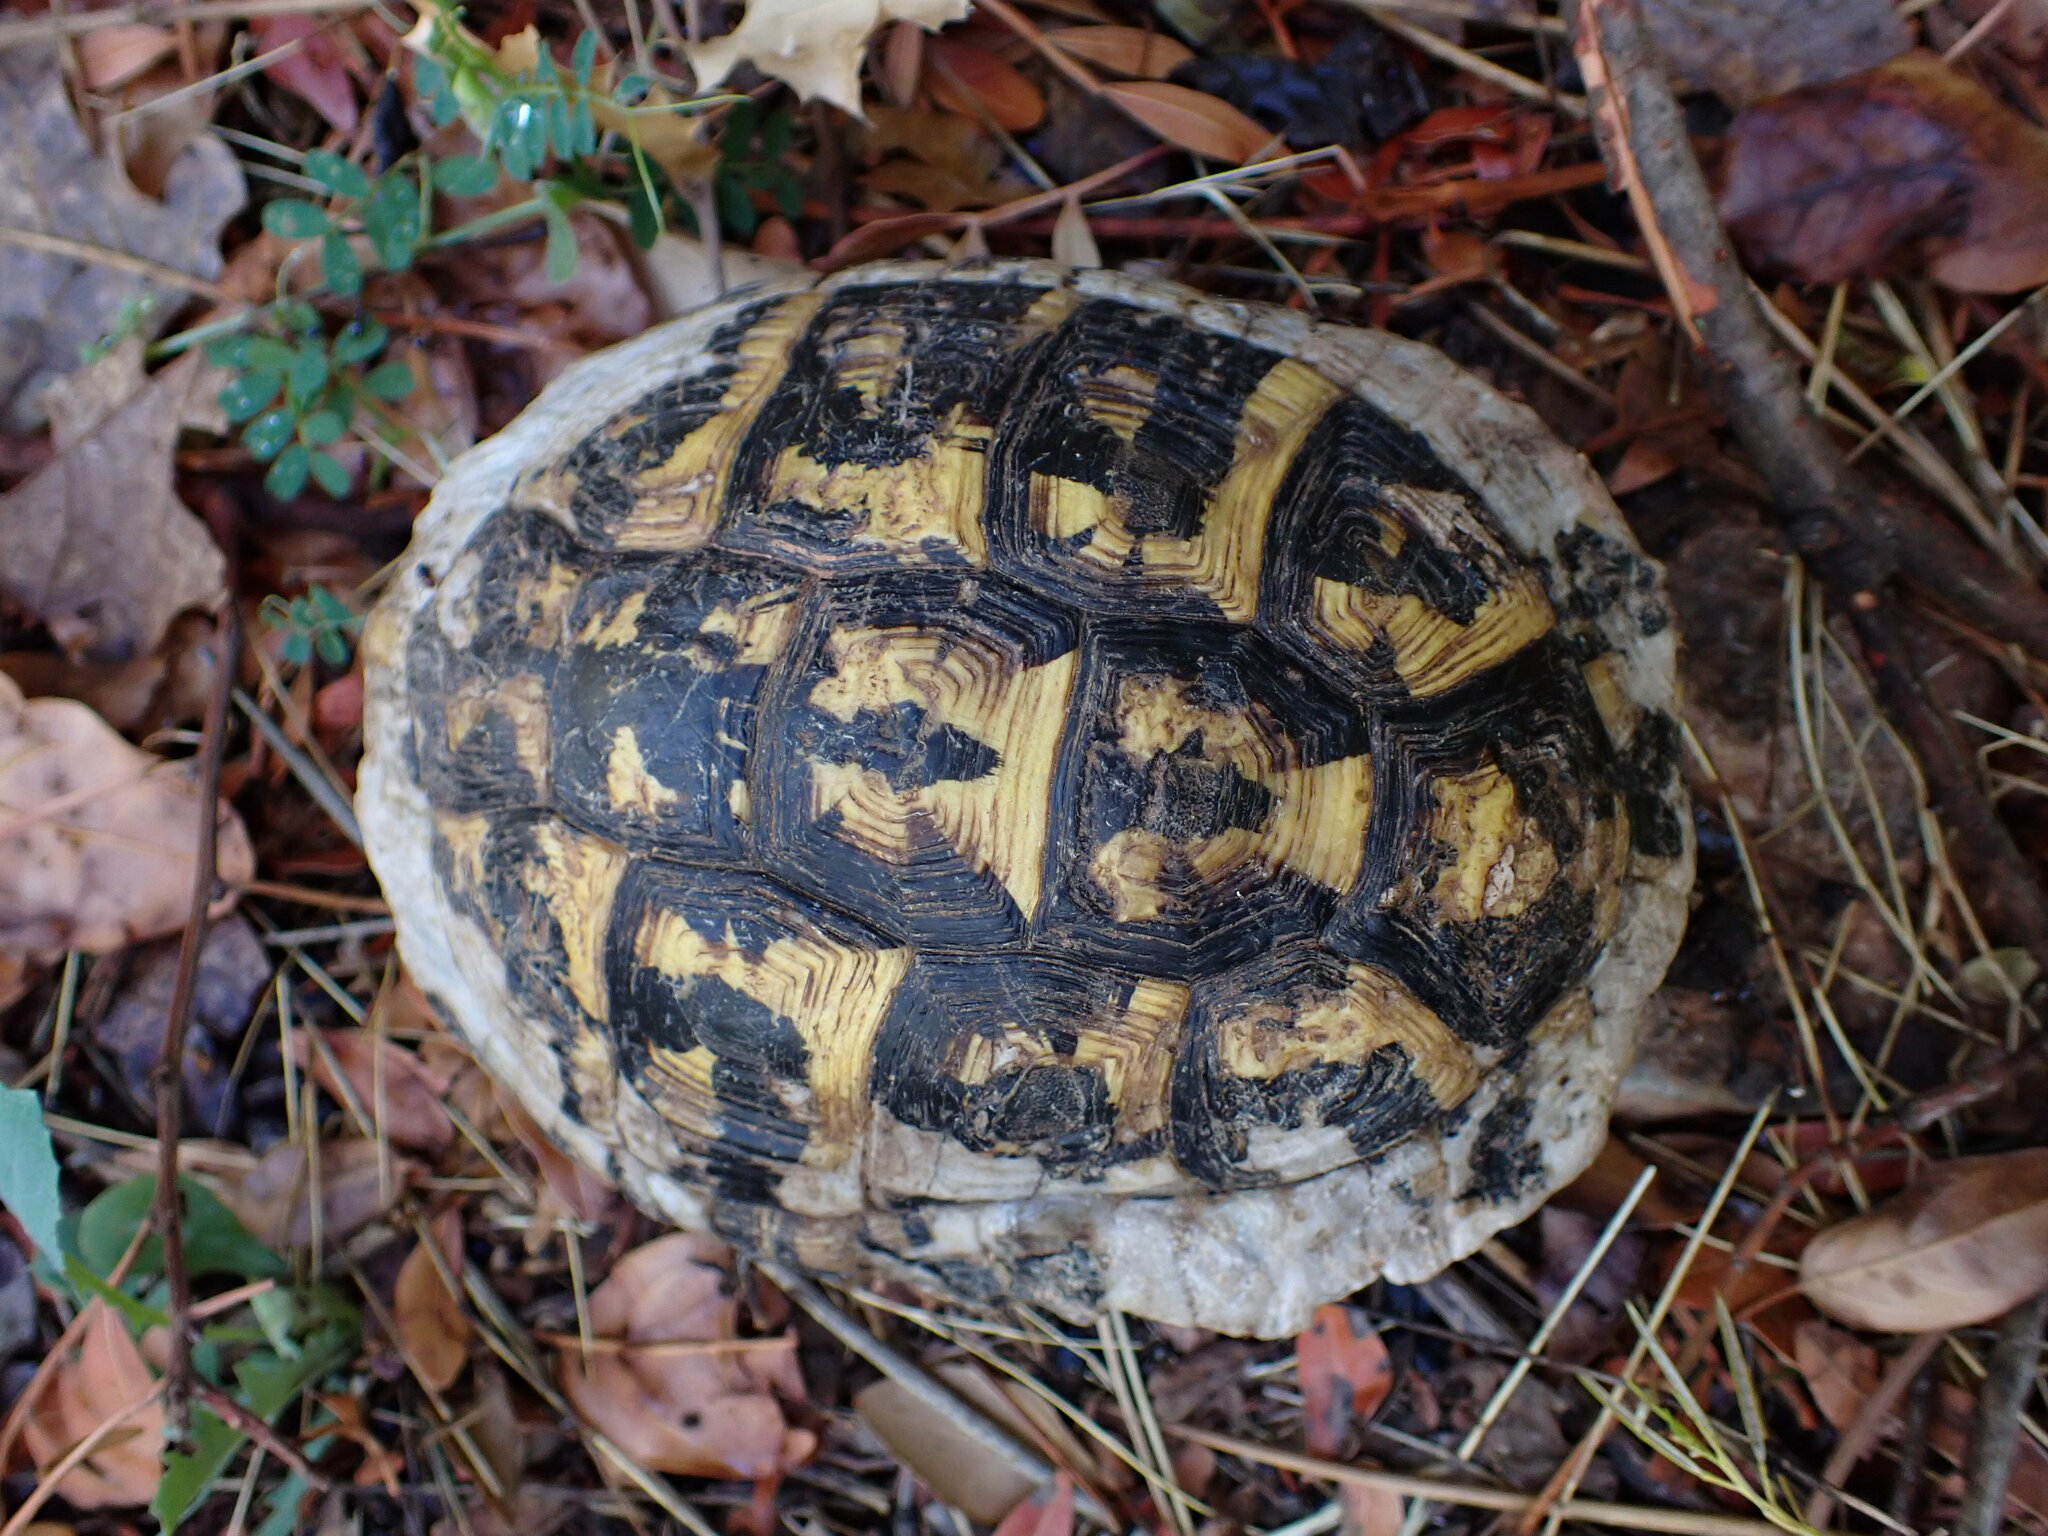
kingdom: Animalia
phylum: Chordata
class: Testudines
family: Testudinidae
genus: Testudo
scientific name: Testudo hermanni
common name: Hermann's tortoise
